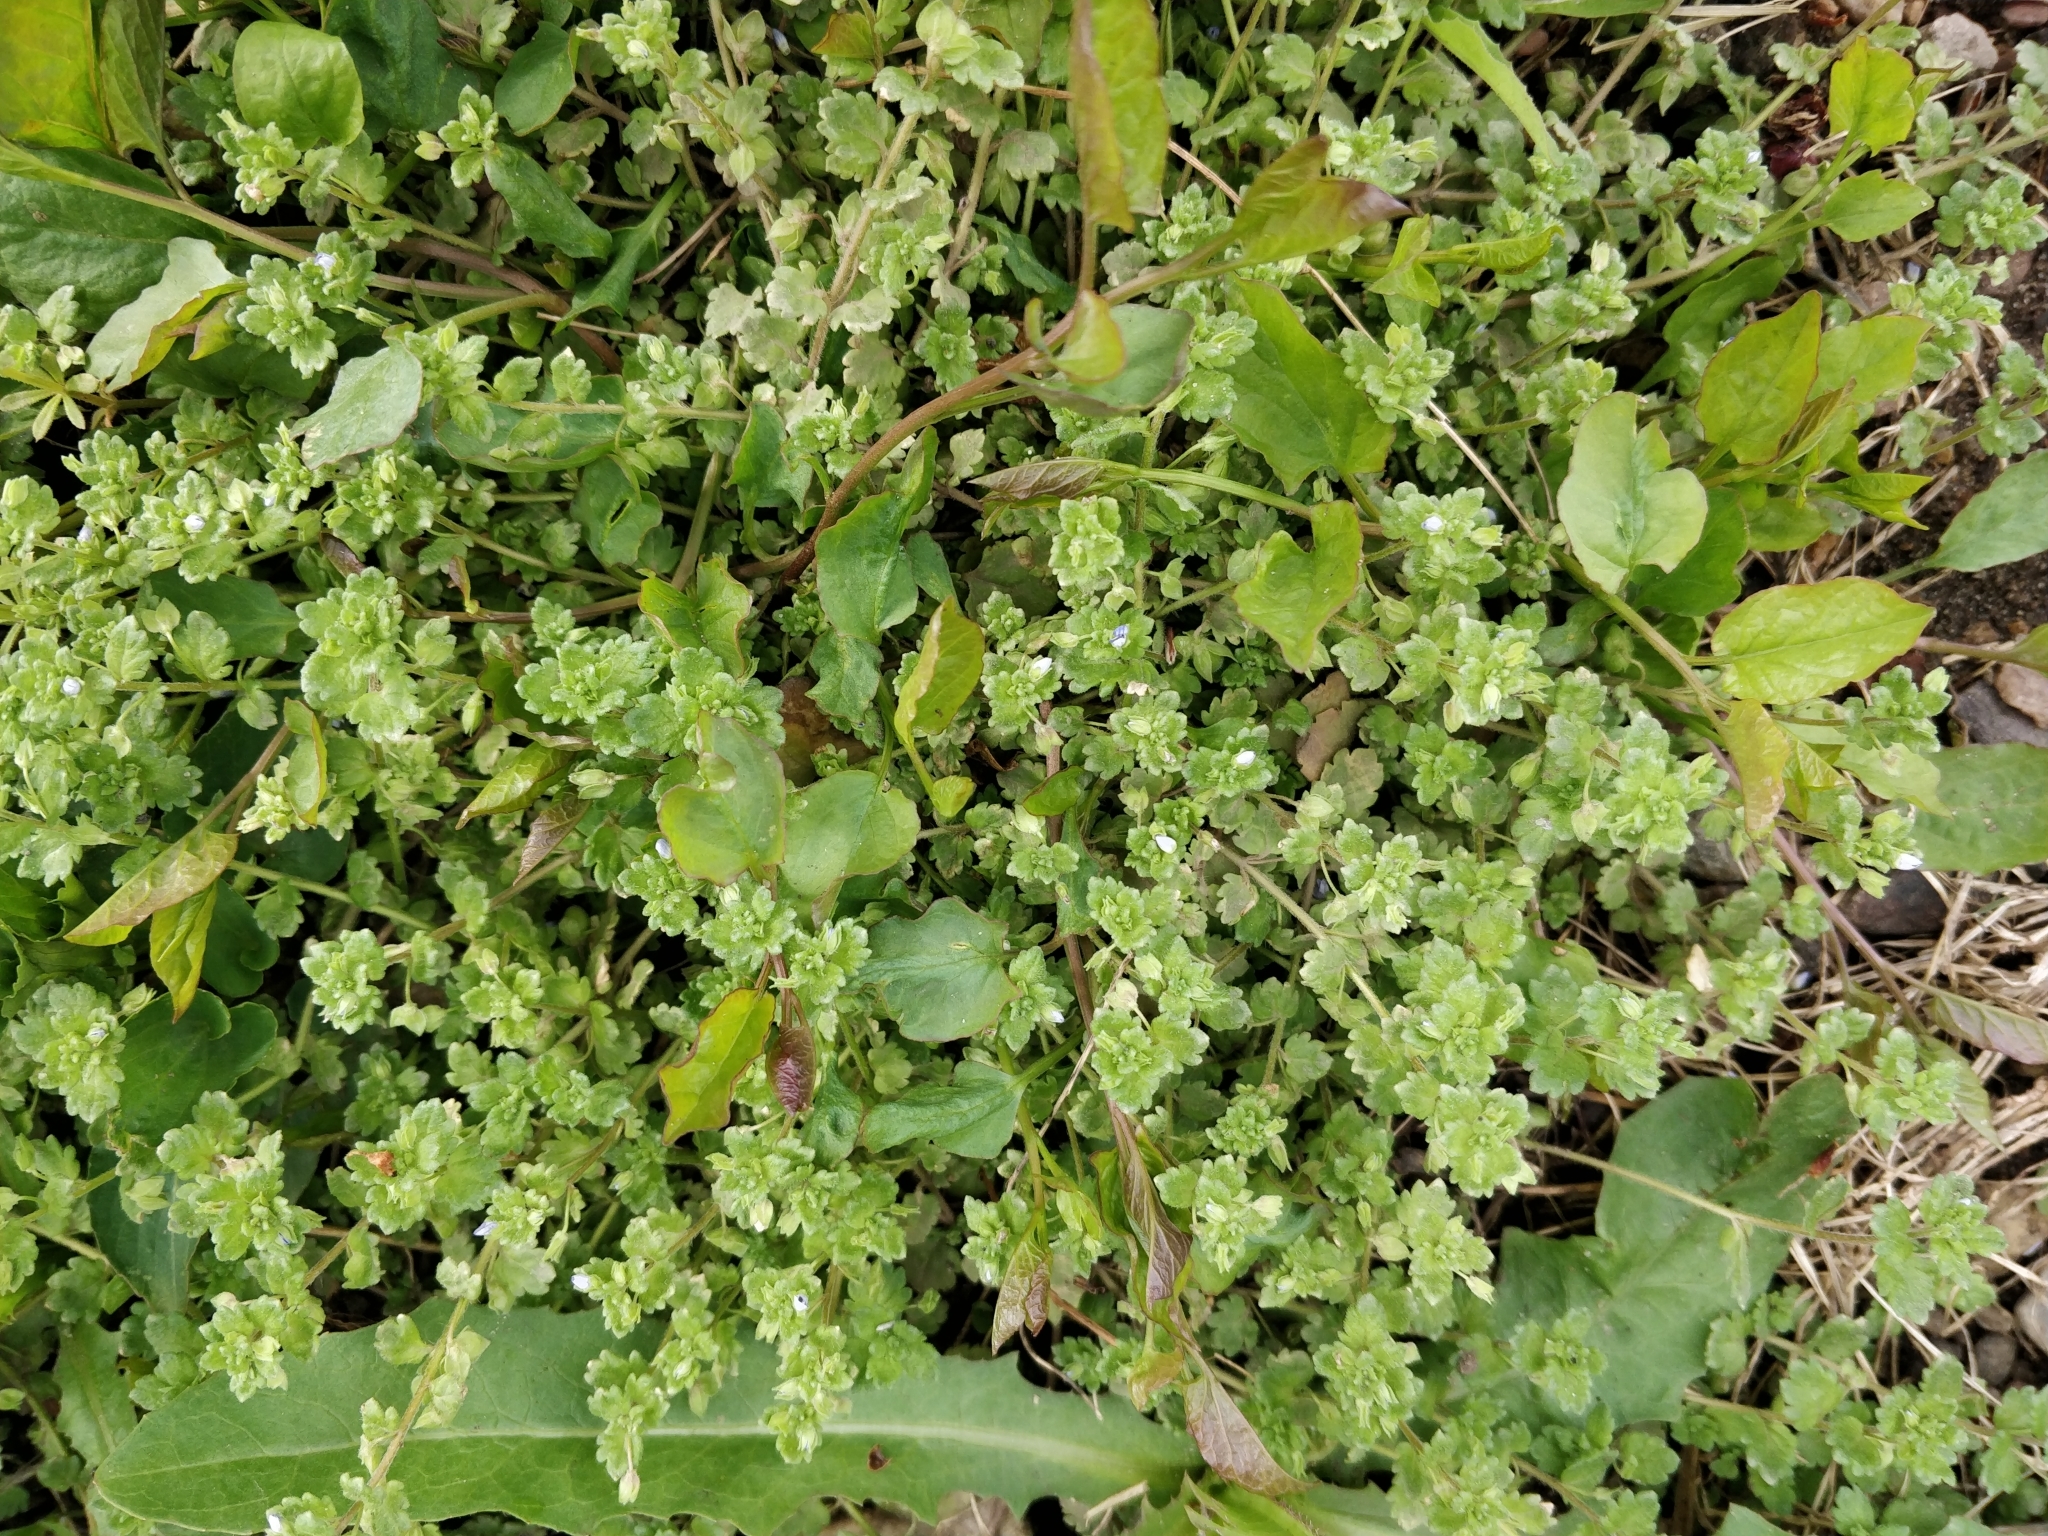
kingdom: Plantae
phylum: Tracheophyta
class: Magnoliopsida
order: Lamiales
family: Plantaginaceae
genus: Veronica
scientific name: Veronica polita
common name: Grey field-speedwell
